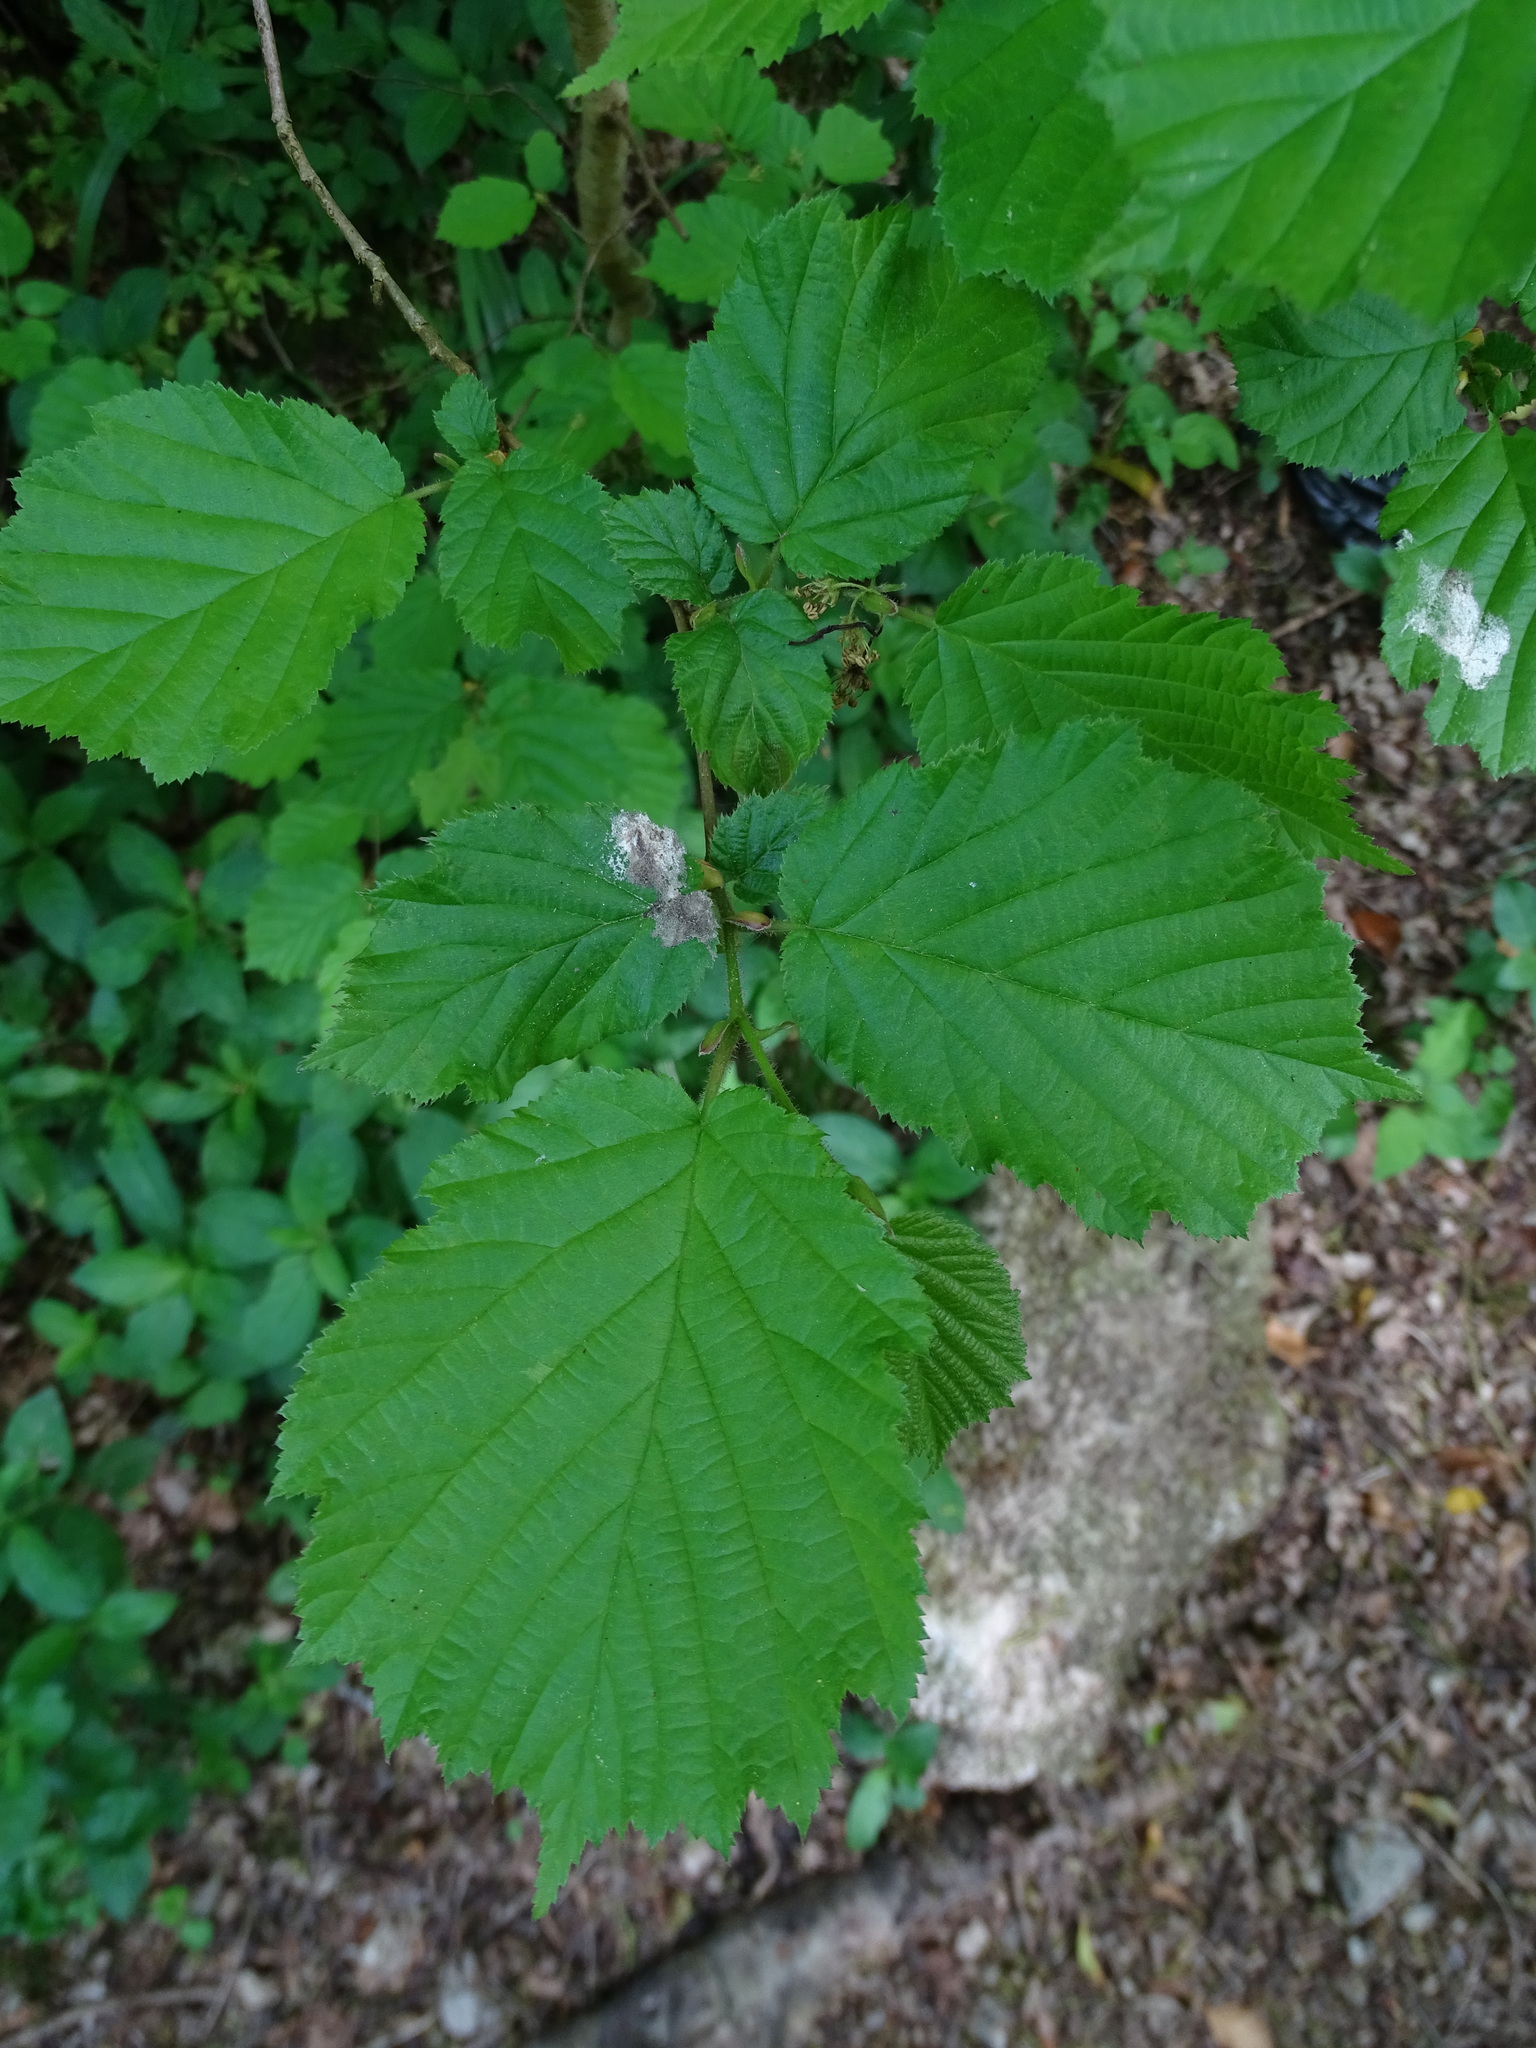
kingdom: Plantae
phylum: Tracheophyta
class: Magnoliopsida
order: Fagales
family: Betulaceae
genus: Corylus
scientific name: Corylus avellana
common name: European hazel
